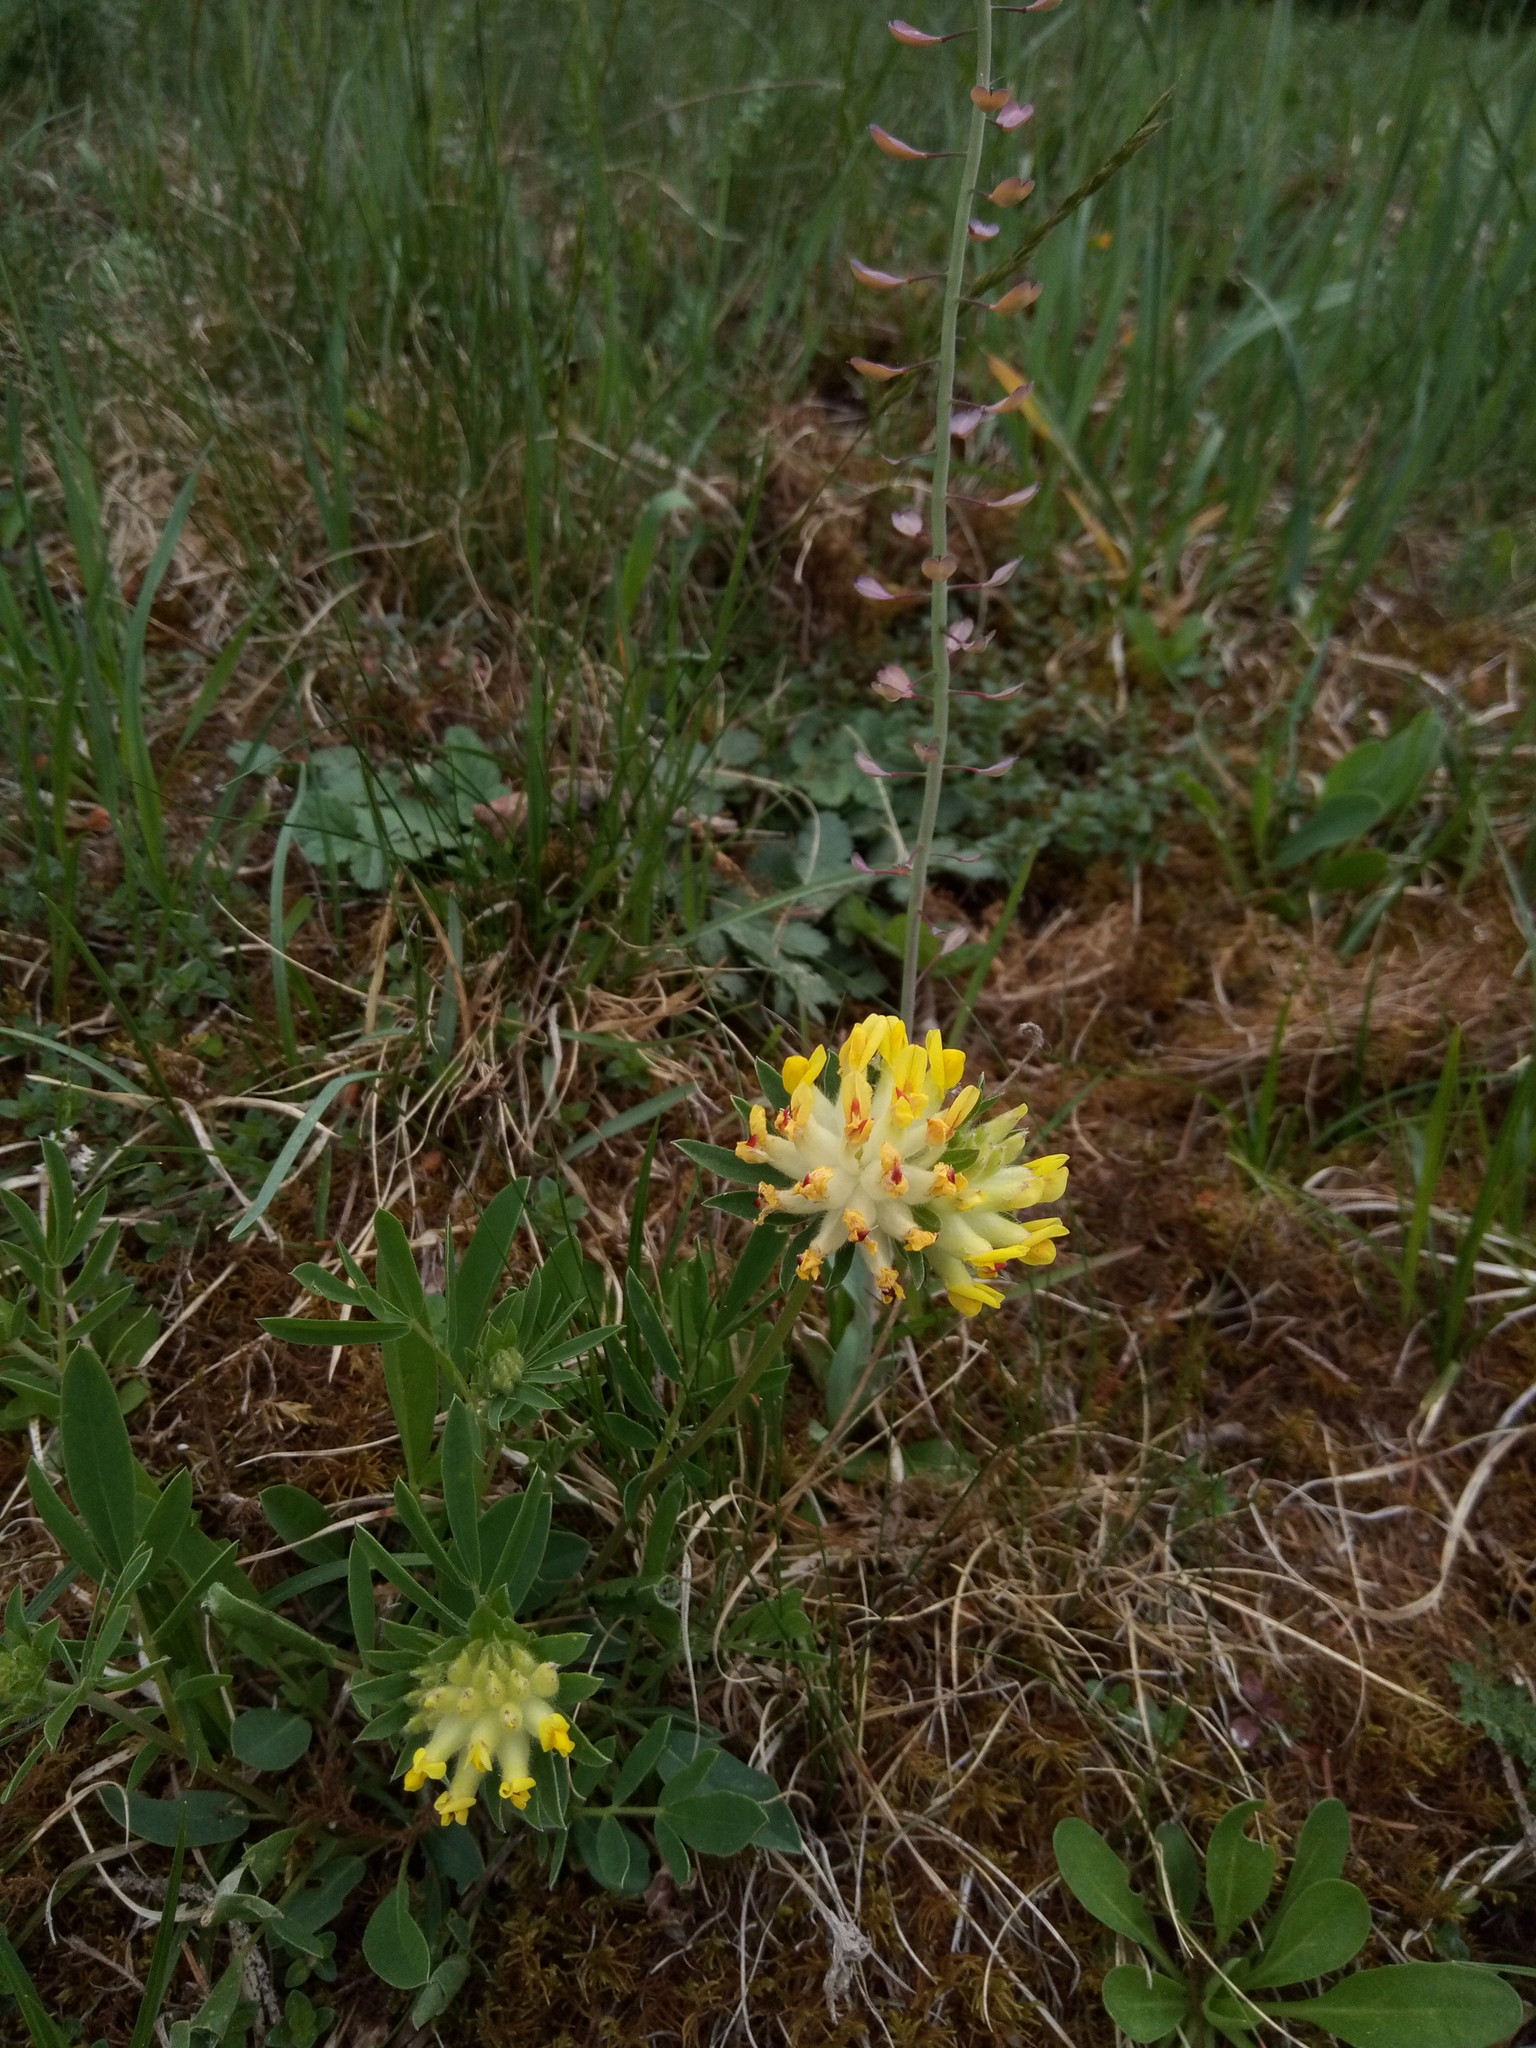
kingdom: Plantae
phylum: Tracheophyta
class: Magnoliopsida
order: Fabales
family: Fabaceae
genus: Anthyllis
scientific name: Anthyllis vulneraria
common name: Kidney vetch
